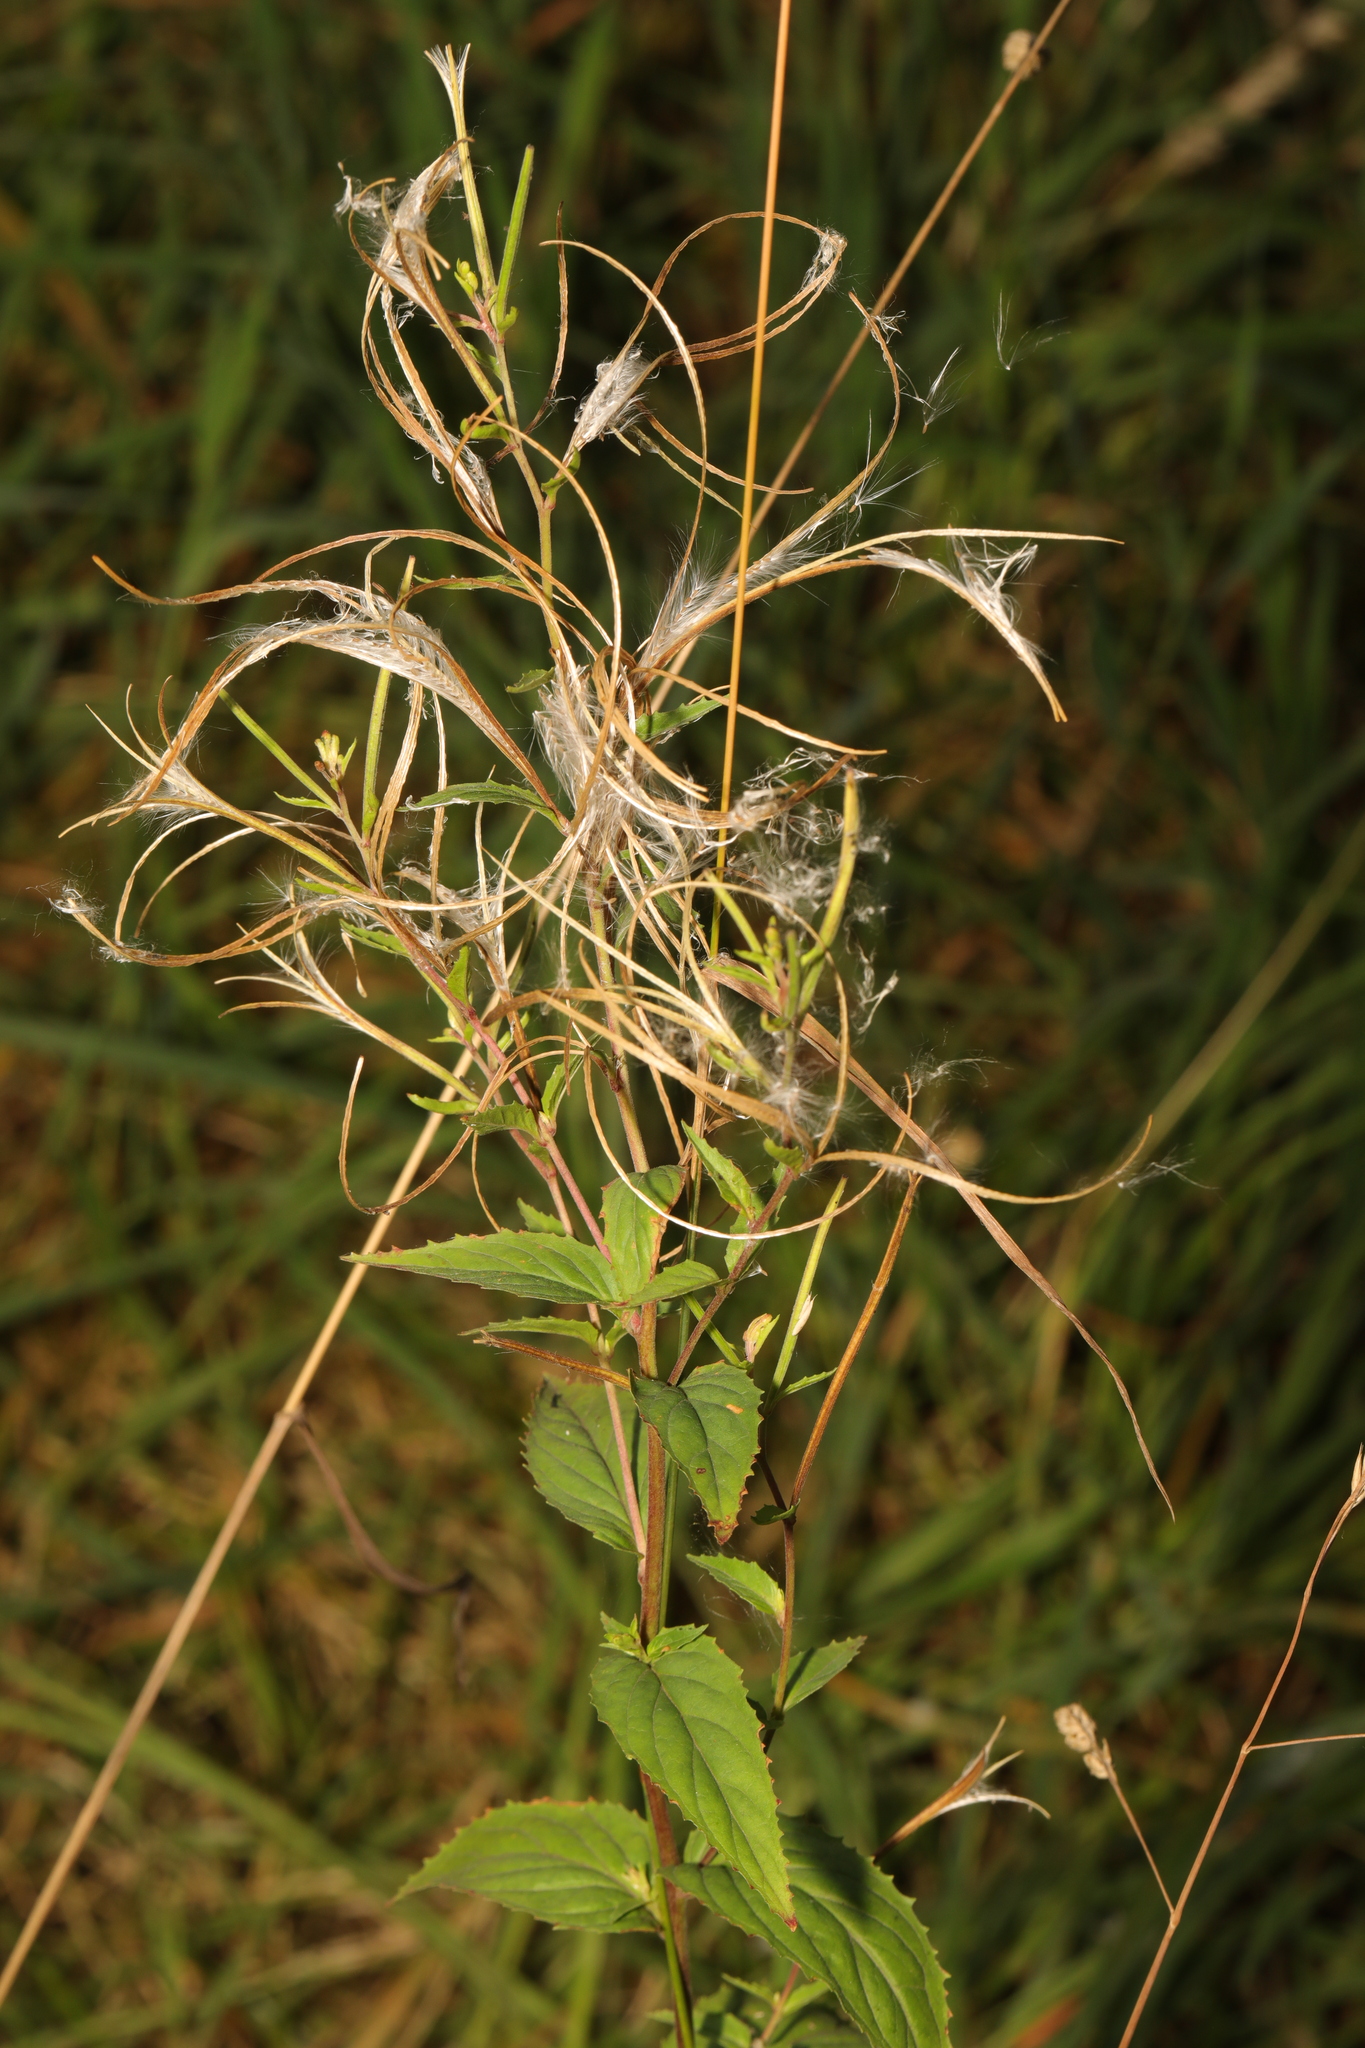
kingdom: Plantae
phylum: Tracheophyta
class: Magnoliopsida
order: Myrtales
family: Onagraceae
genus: Epilobium
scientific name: Epilobium montanum
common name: Broad-leaved willowherb
